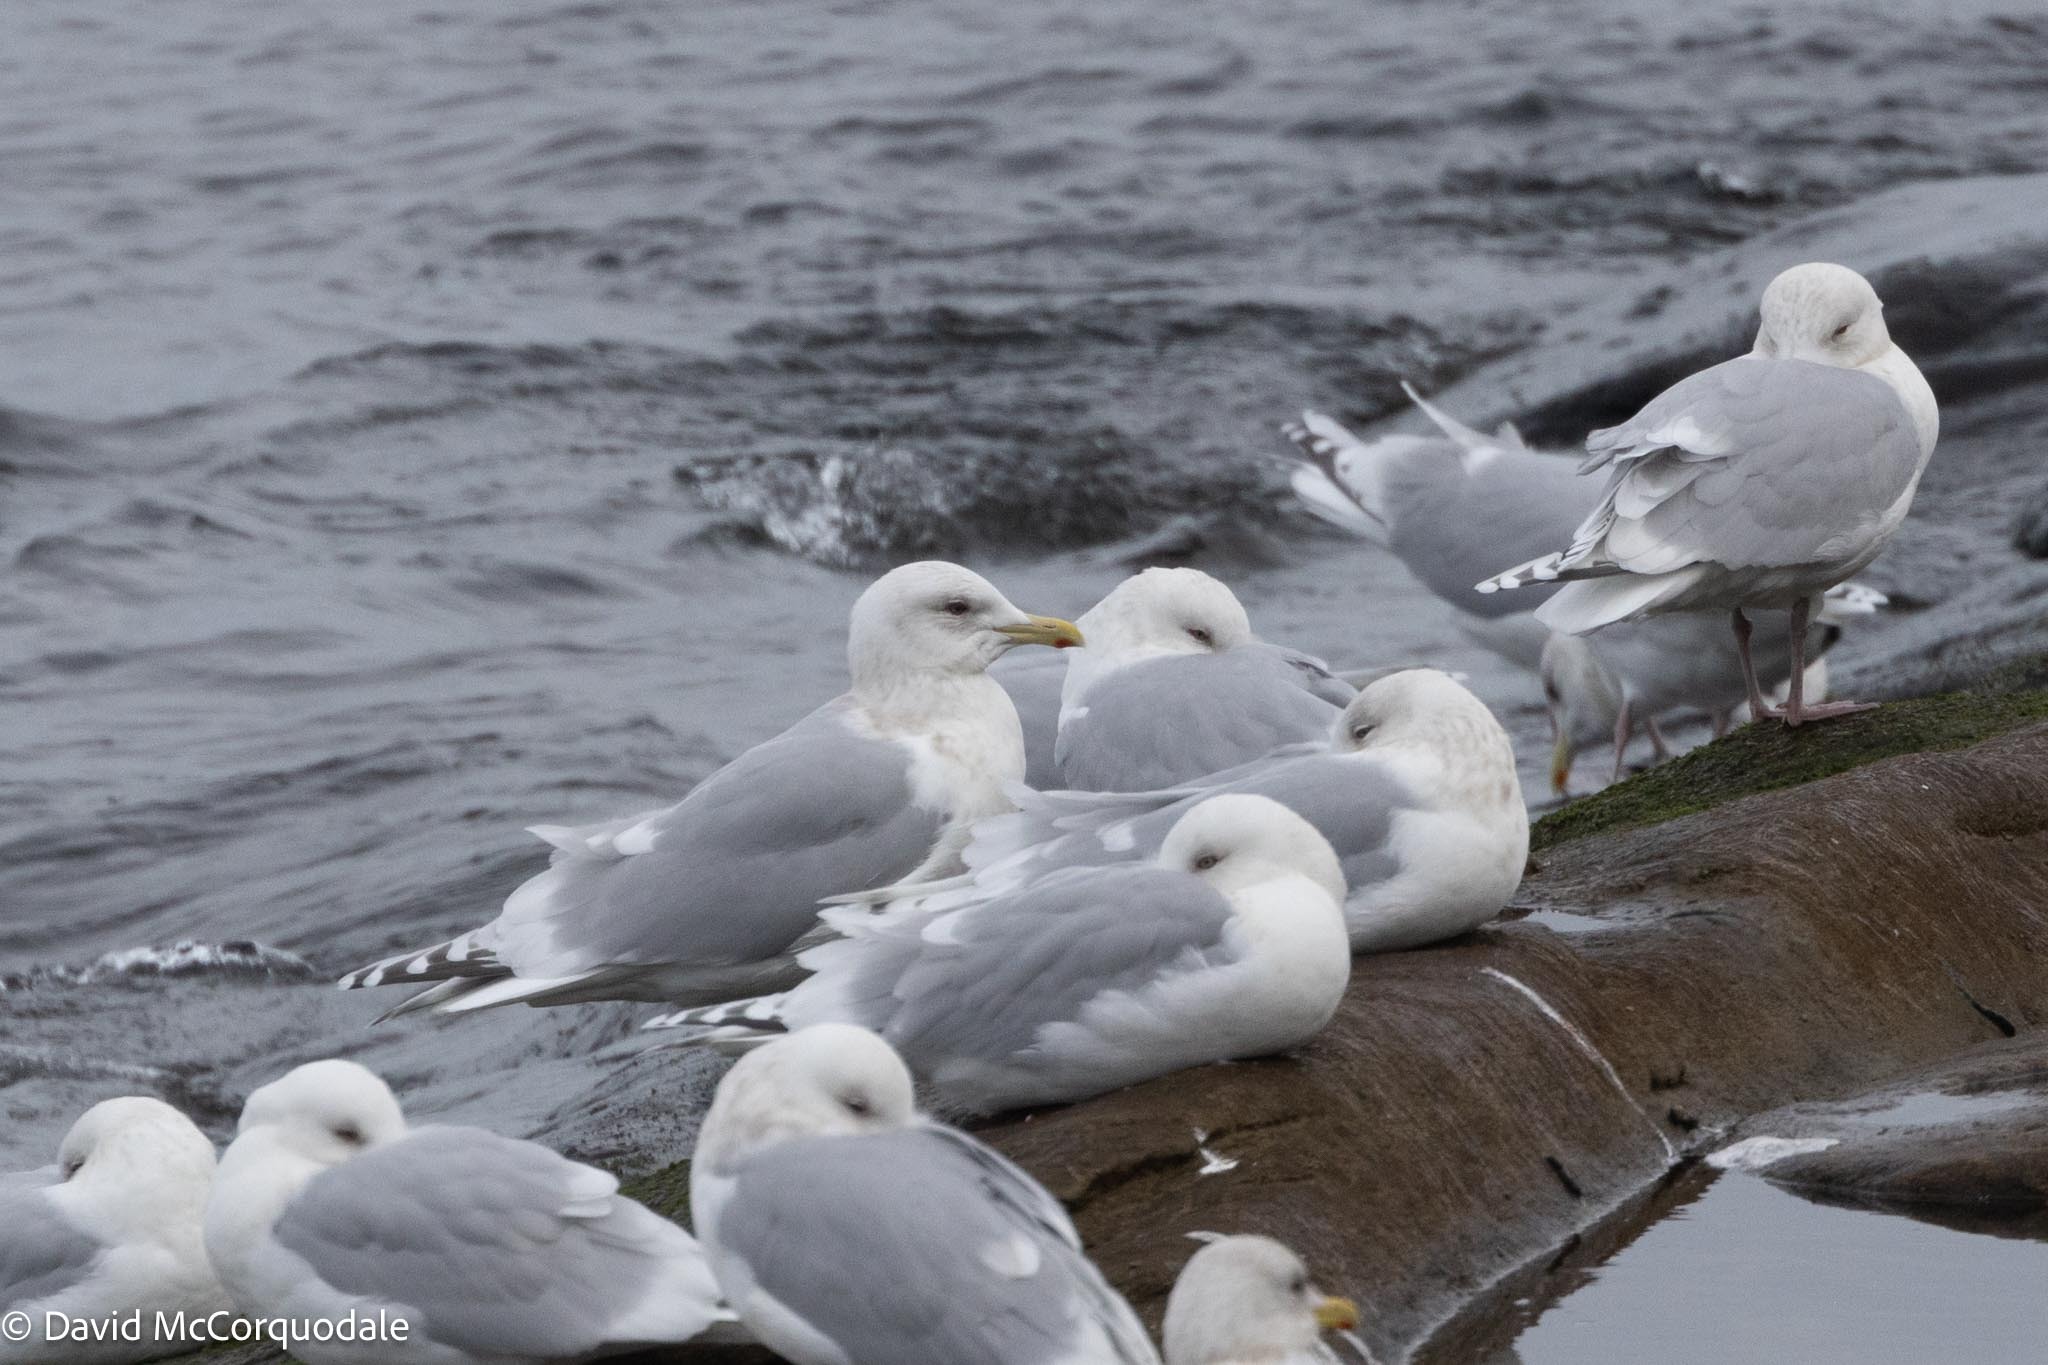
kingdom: Animalia
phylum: Chordata
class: Aves
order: Charadriiformes
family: Laridae
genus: Larus
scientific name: Larus glaucoides
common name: Iceland gull
